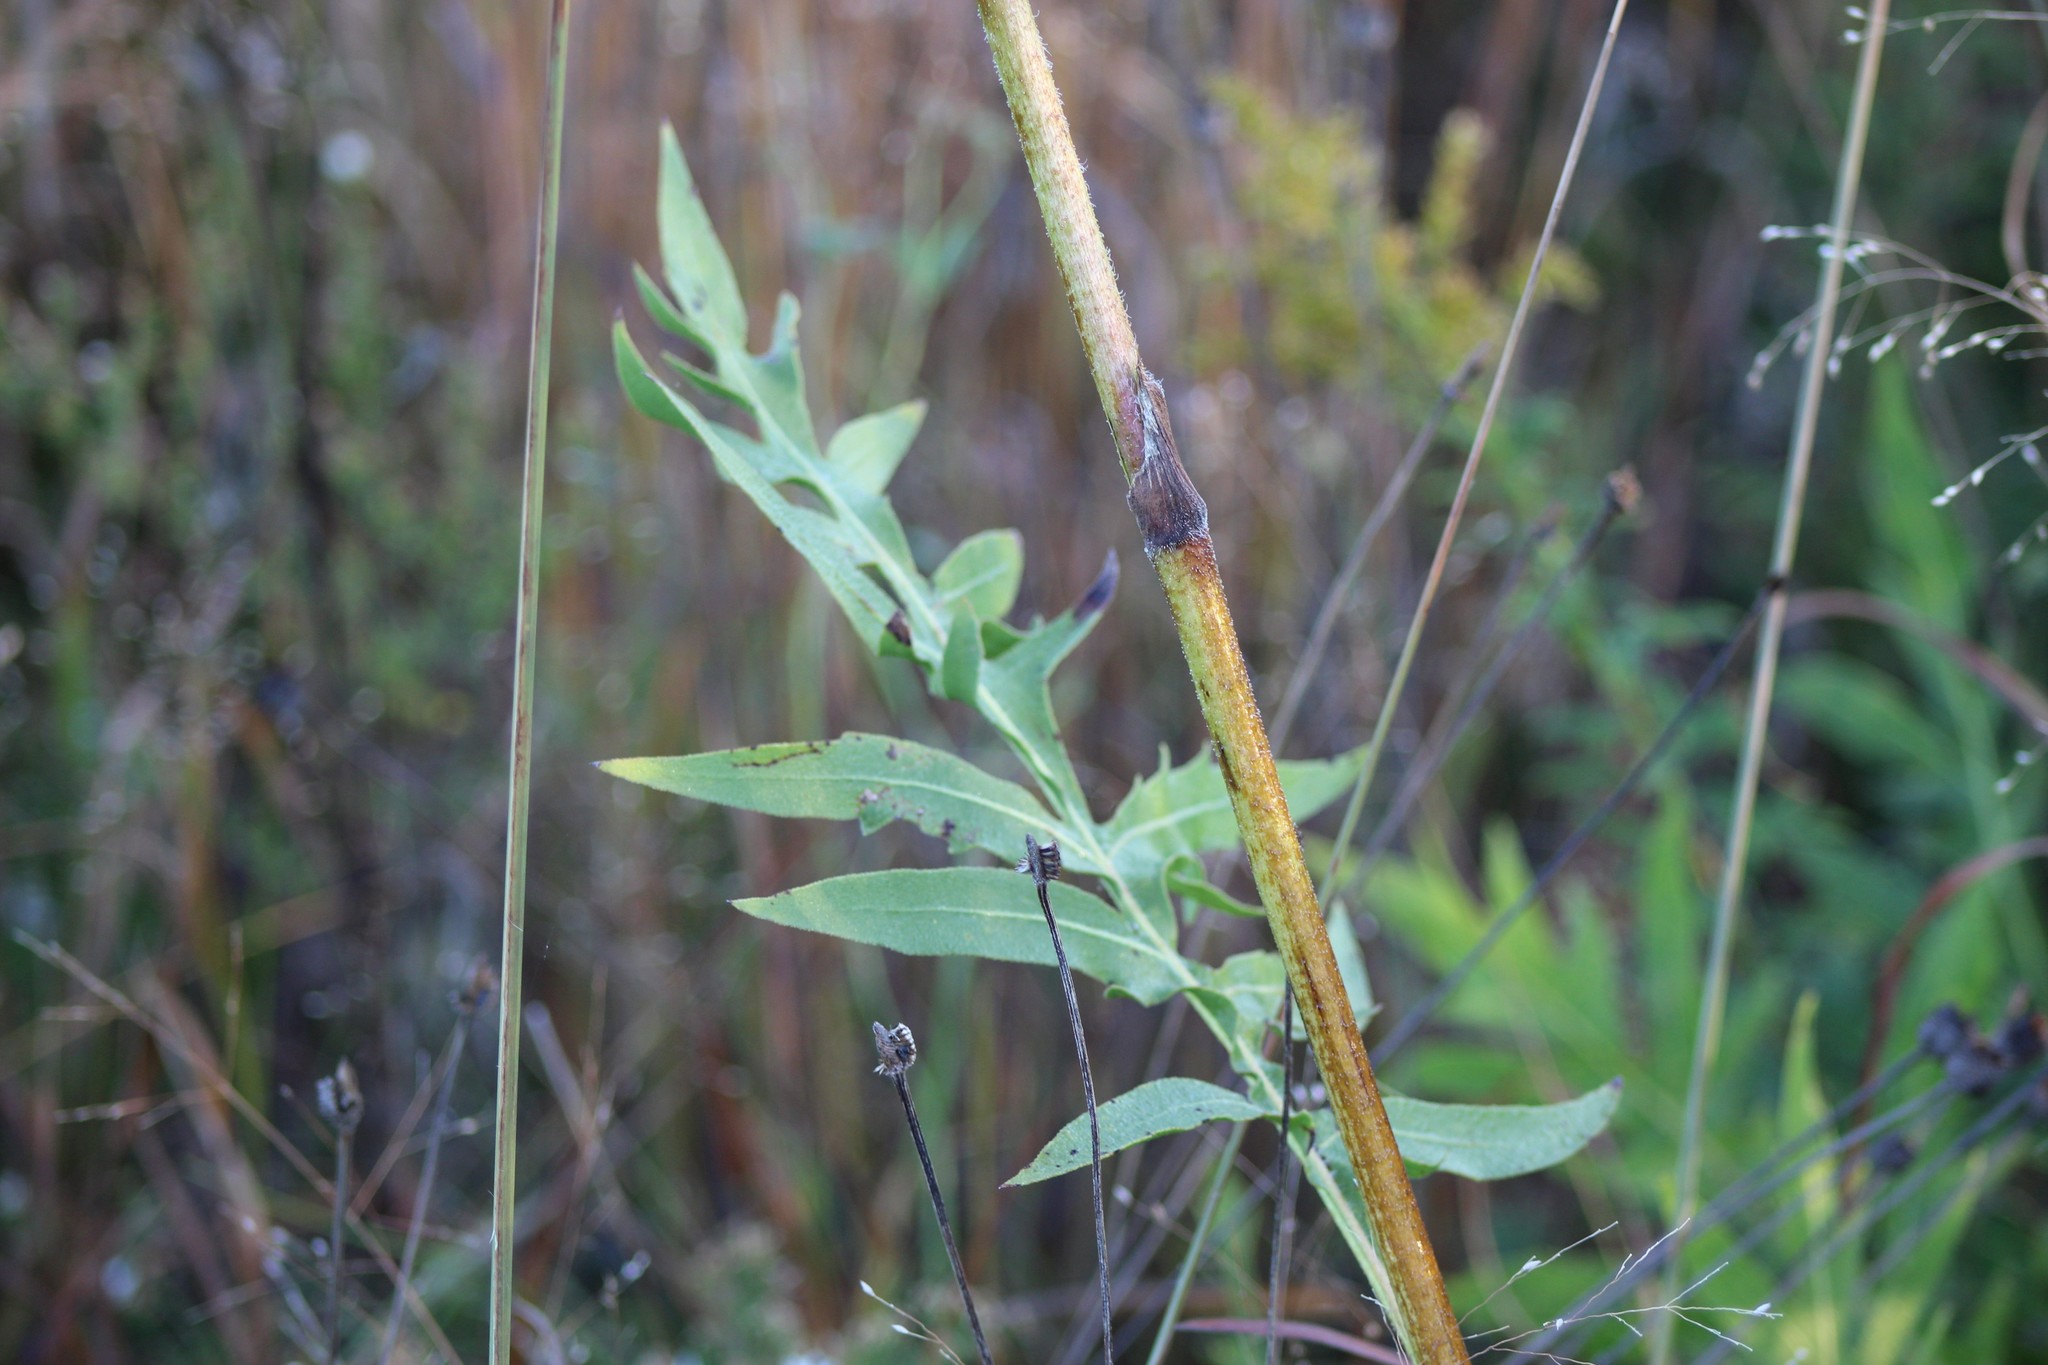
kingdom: Plantae
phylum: Tracheophyta
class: Magnoliopsida
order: Asterales
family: Asteraceae
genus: Silphium
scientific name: Silphium laciniatum
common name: Polarplant
